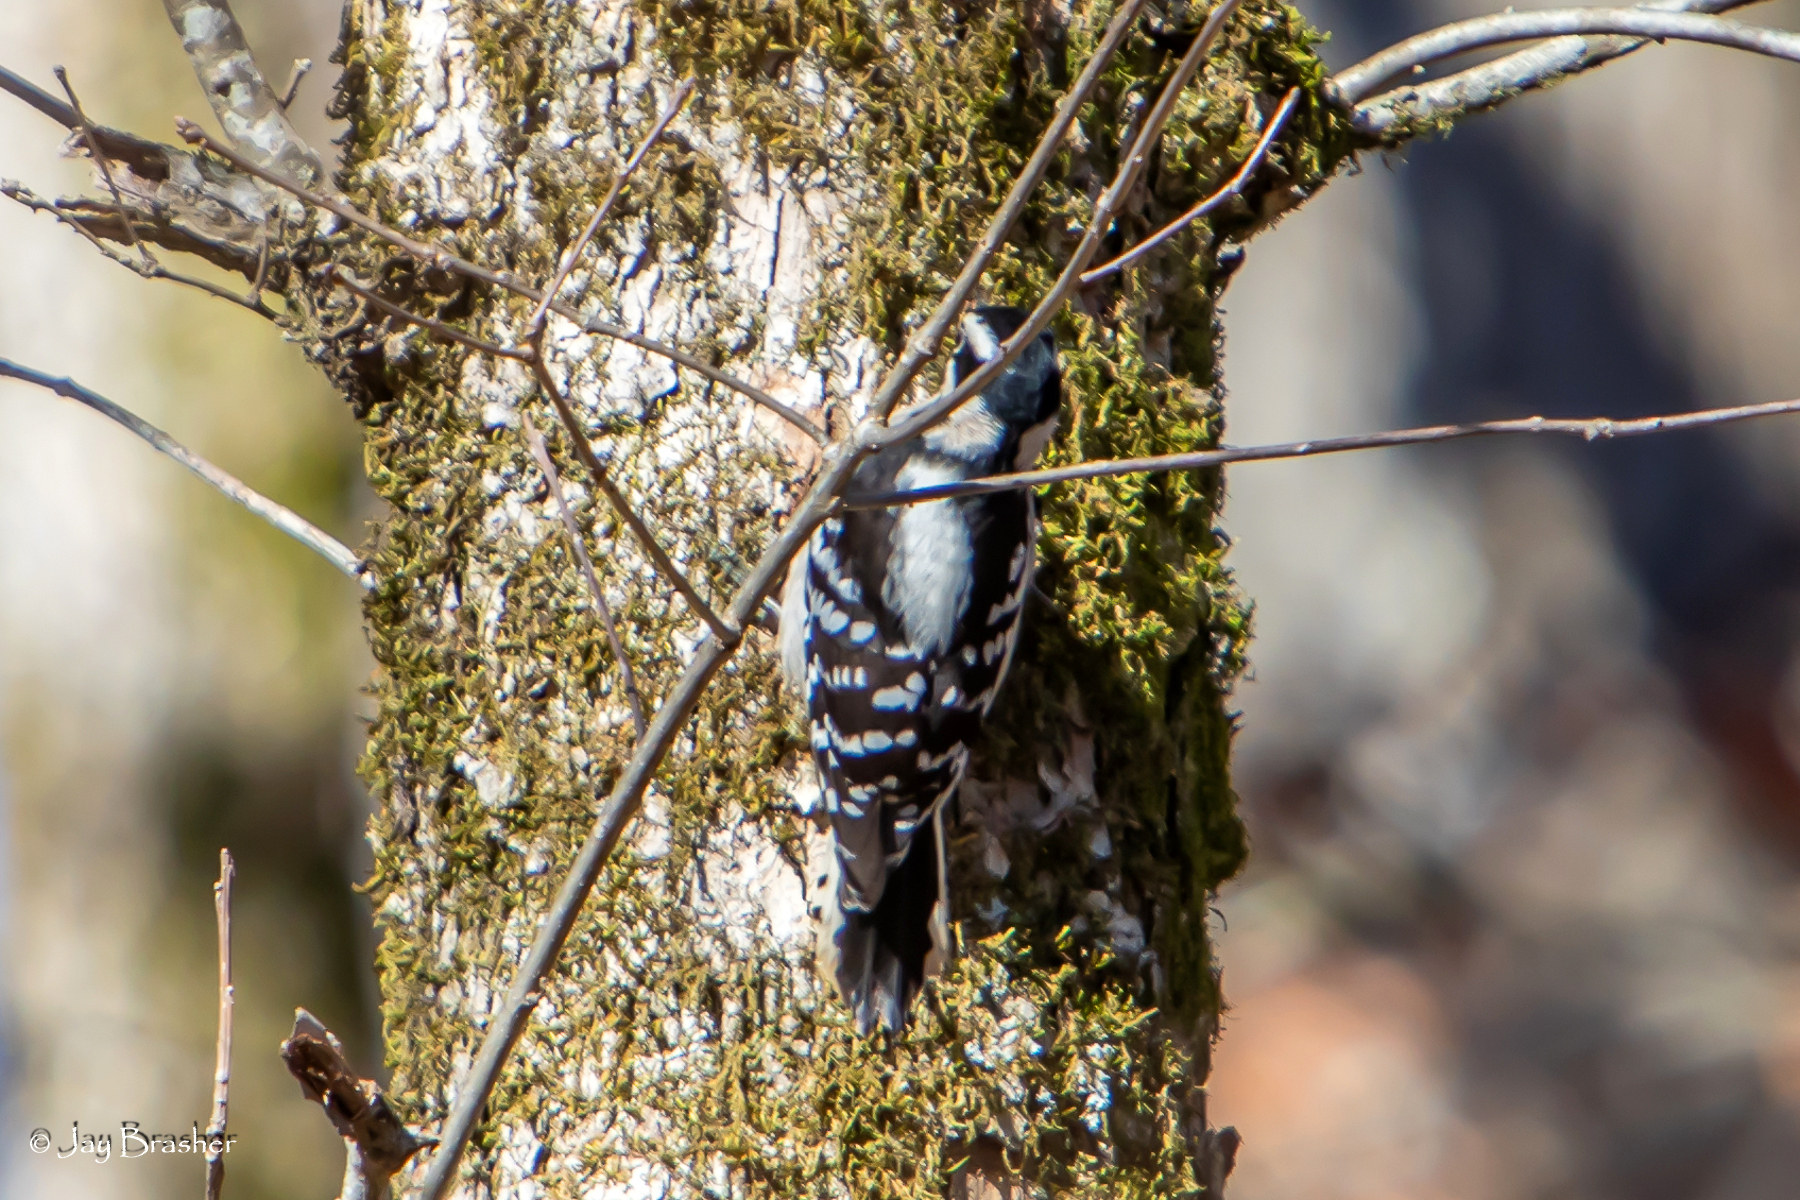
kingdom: Animalia
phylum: Chordata
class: Aves
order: Piciformes
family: Picidae
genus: Dryobates
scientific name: Dryobates pubescens
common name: Downy woodpecker
